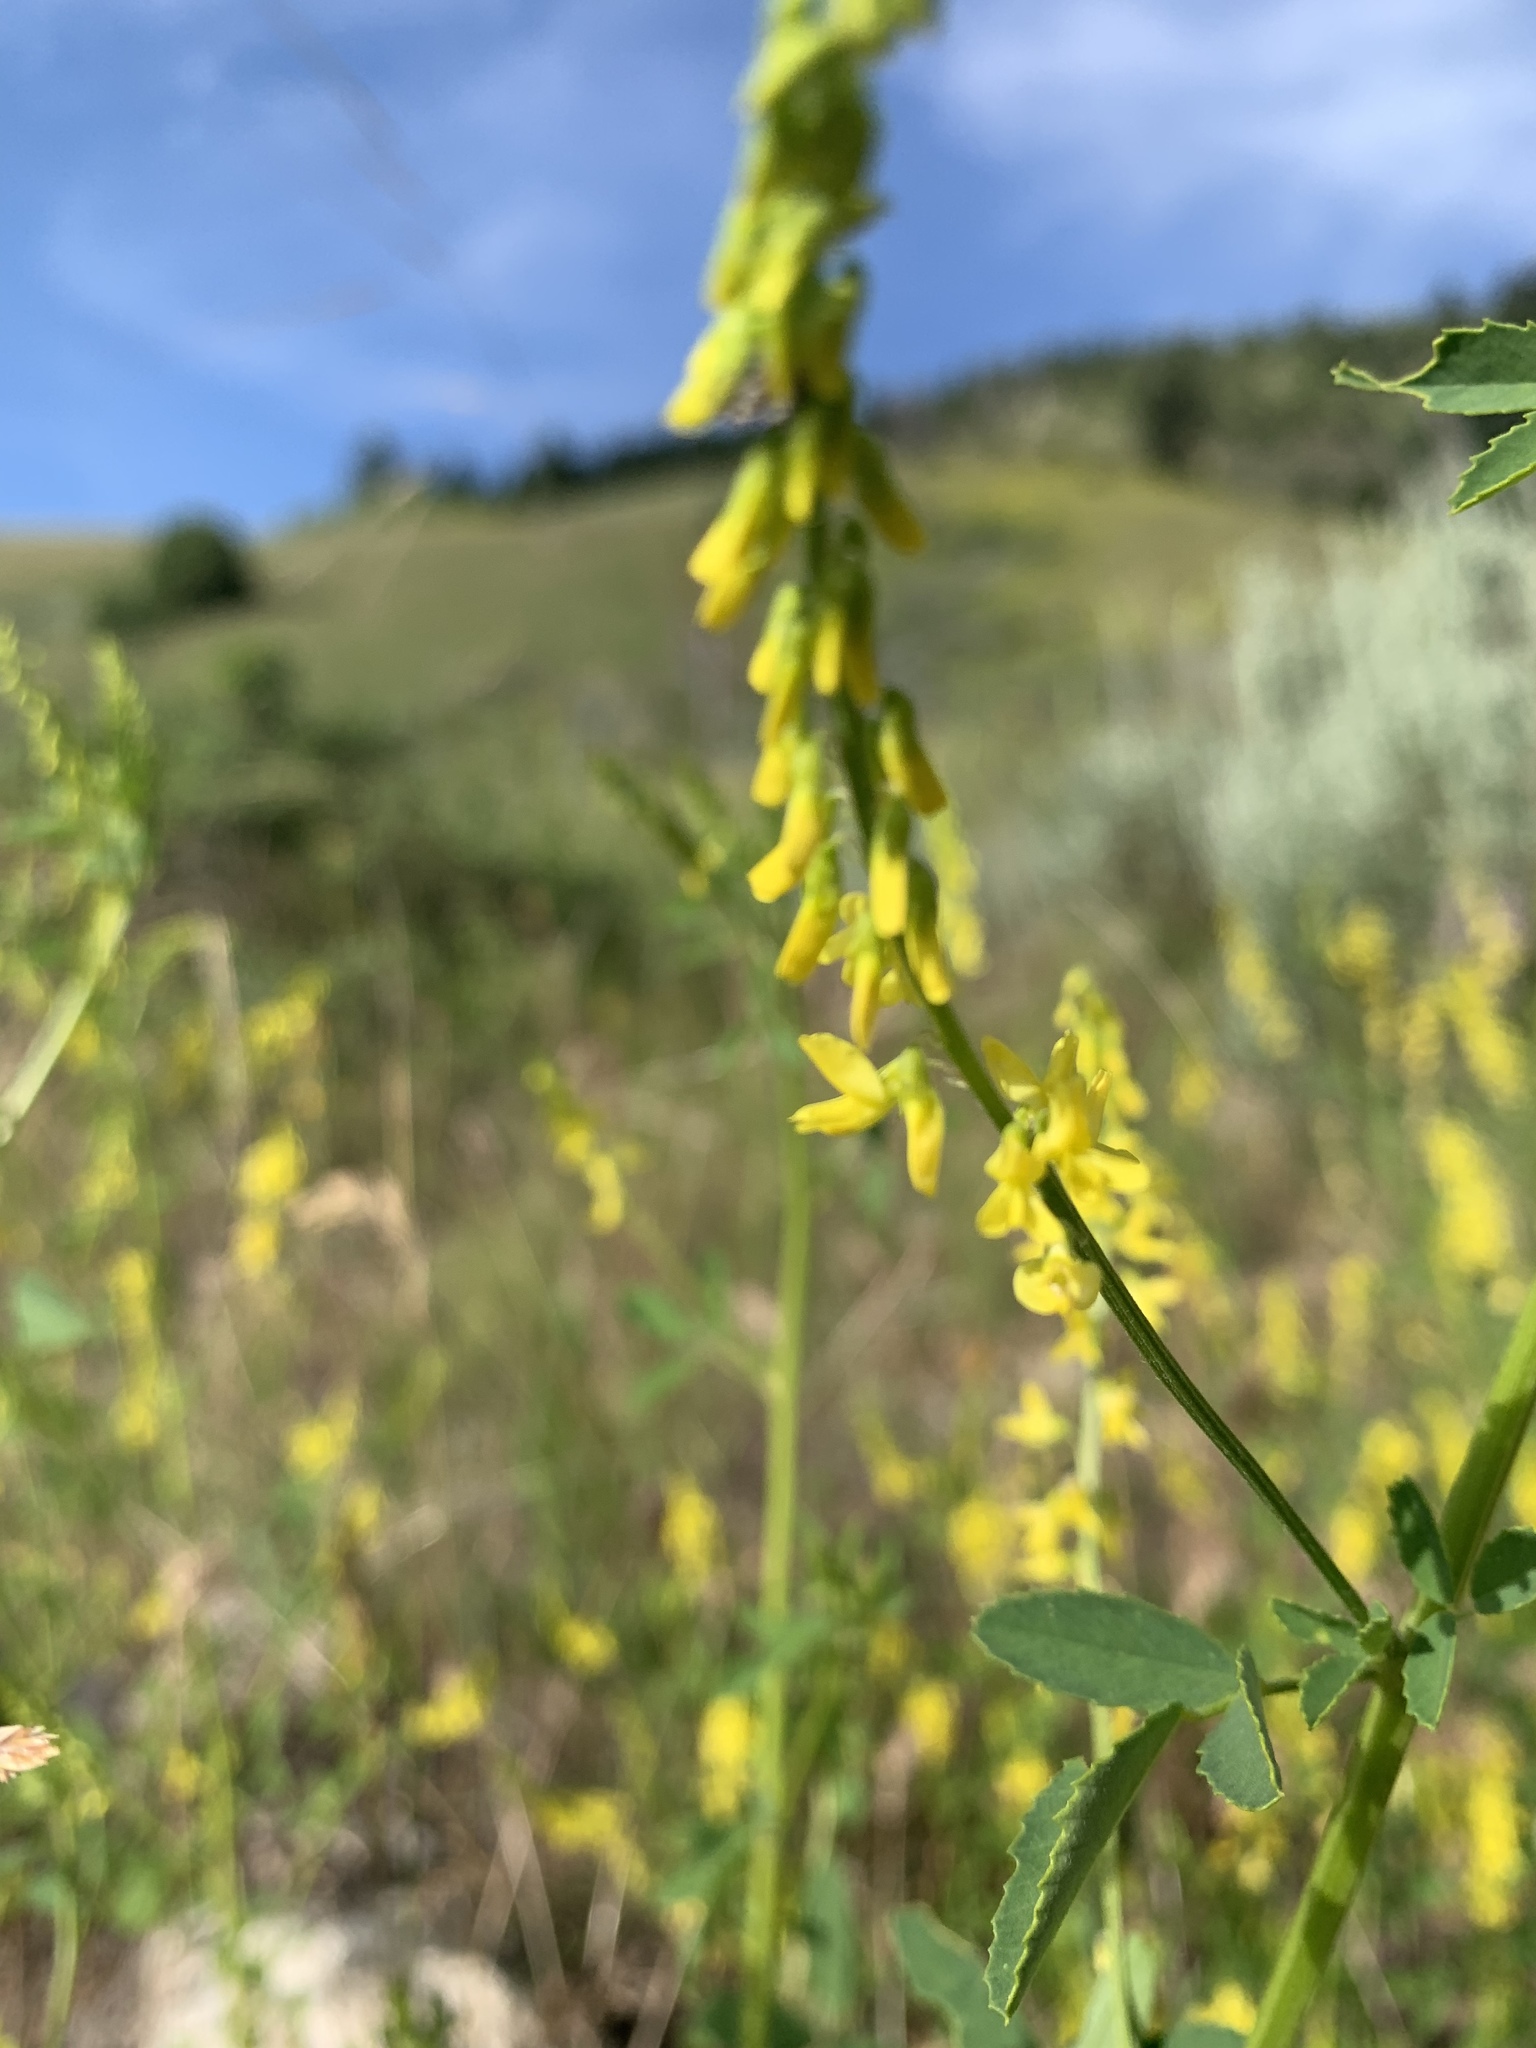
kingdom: Plantae
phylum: Tracheophyta
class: Magnoliopsida
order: Fabales
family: Fabaceae
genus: Melilotus
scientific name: Melilotus officinalis
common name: Sweetclover
